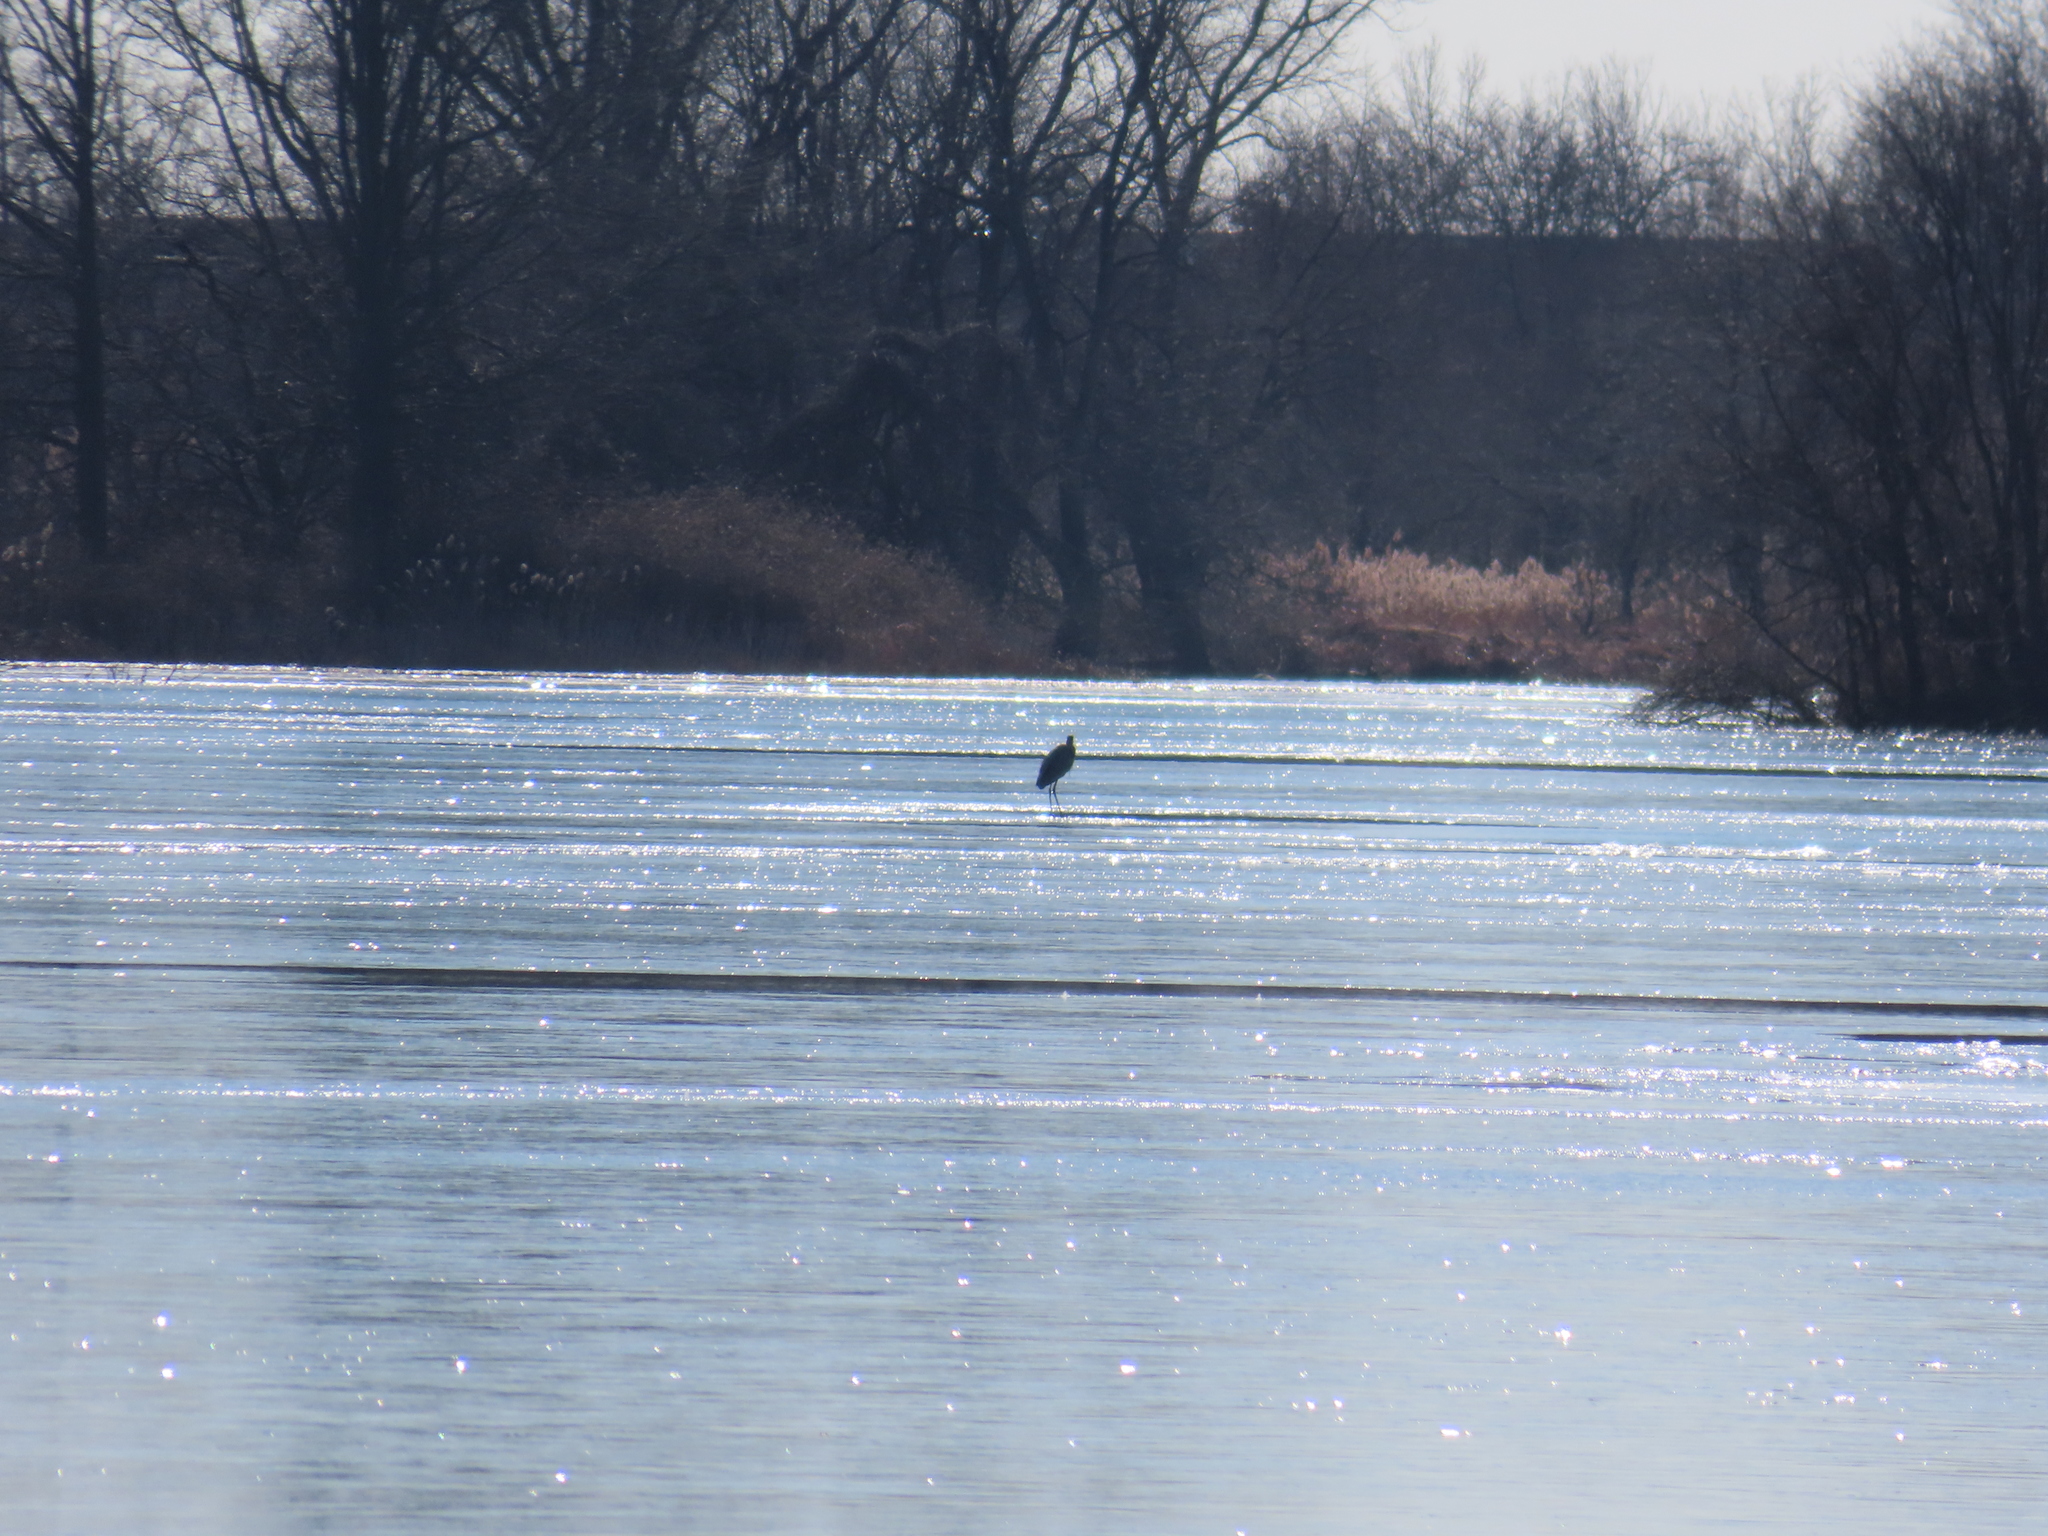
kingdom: Animalia
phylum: Chordata
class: Aves
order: Pelecaniformes
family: Ardeidae
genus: Ardea
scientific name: Ardea herodias
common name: Great blue heron
